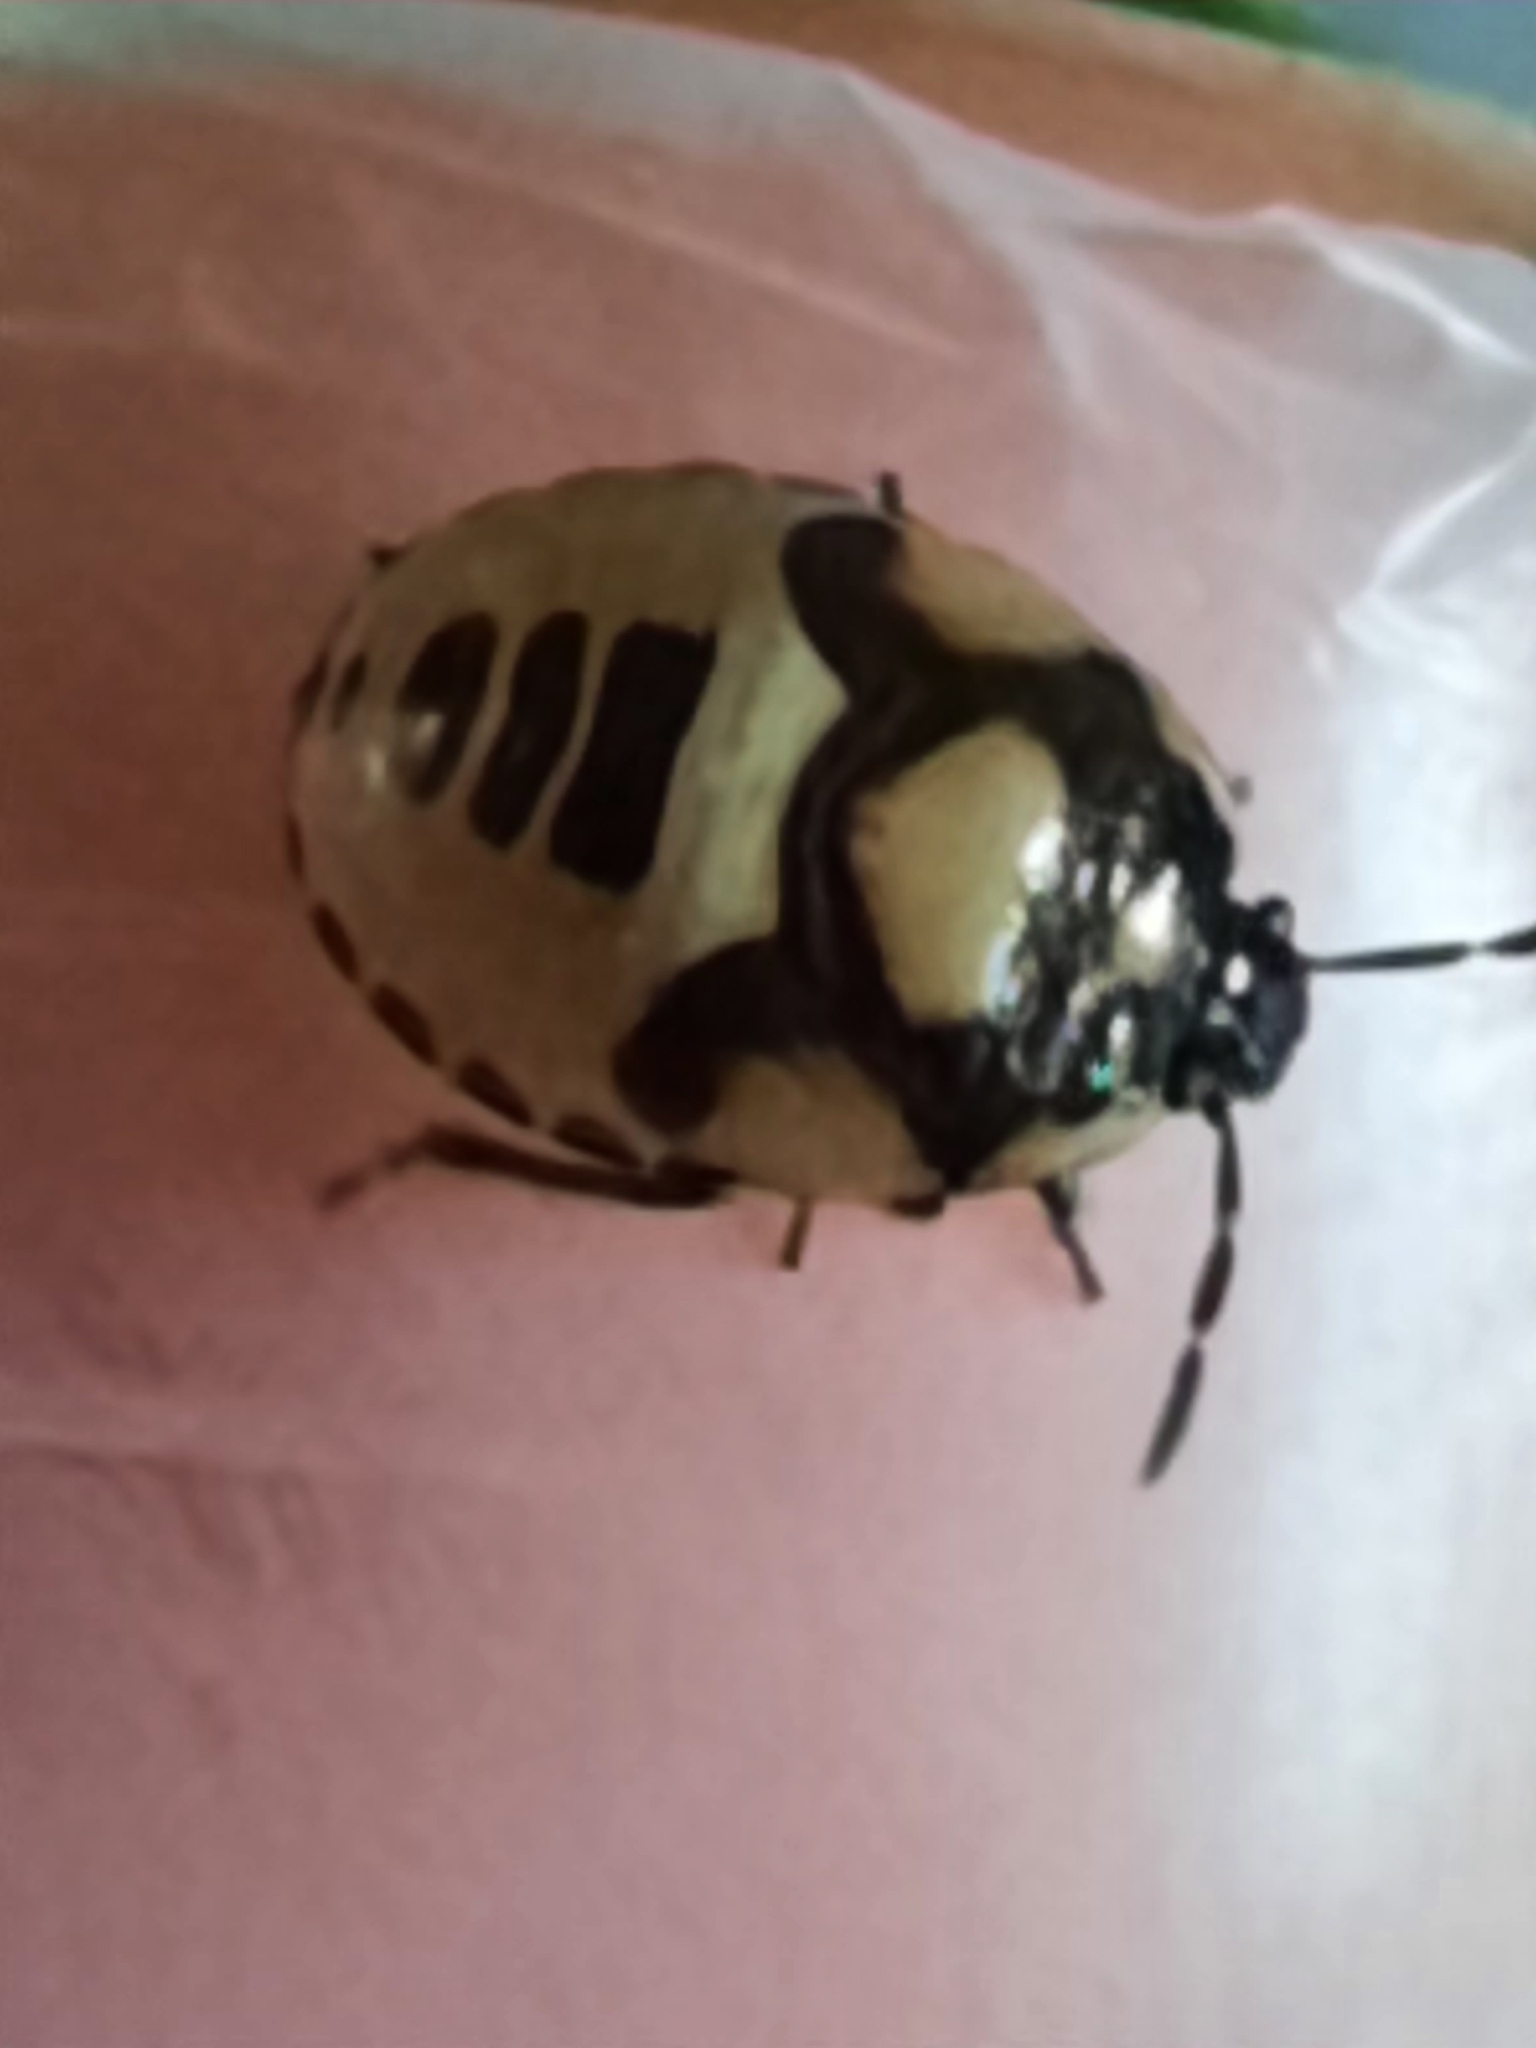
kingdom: Animalia
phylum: Arthropoda
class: Insecta
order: Hemiptera
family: Cydnidae
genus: Tritomegas
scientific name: Tritomegas bicolor
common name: Pied shieldbug
